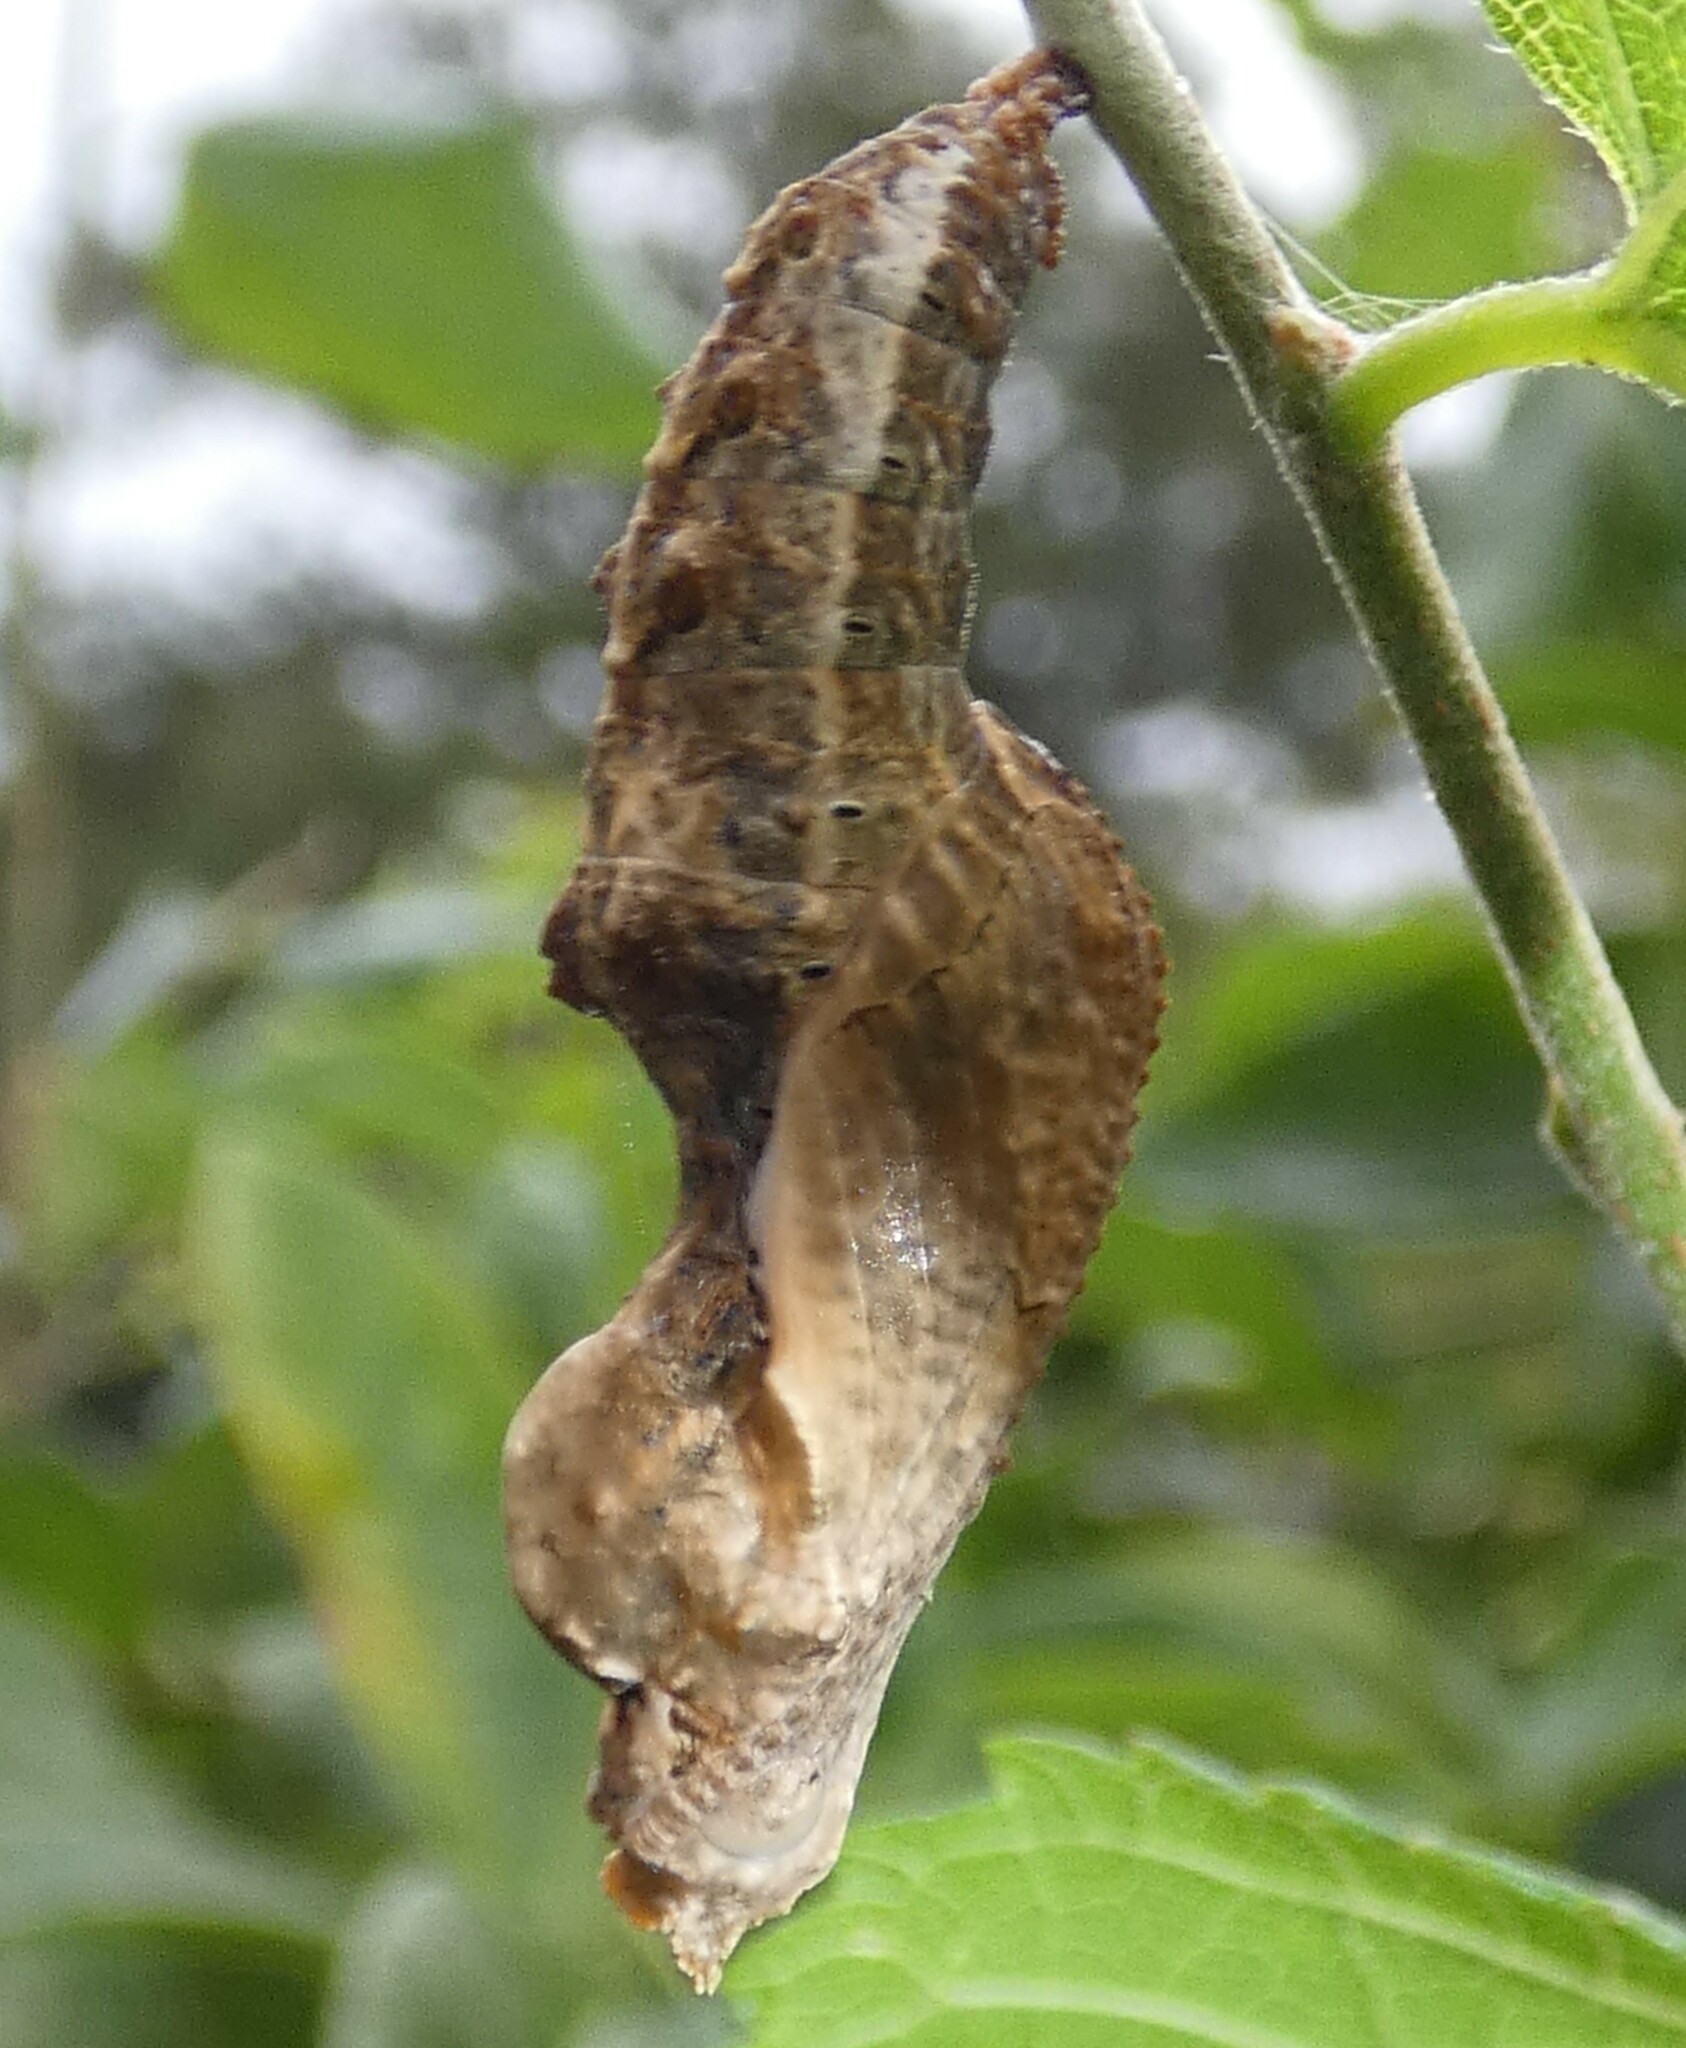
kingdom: Animalia
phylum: Arthropoda
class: Insecta
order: Lepidoptera
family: Nymphalidae
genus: Dione
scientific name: Dione vanillae
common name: Gulf fritillary
